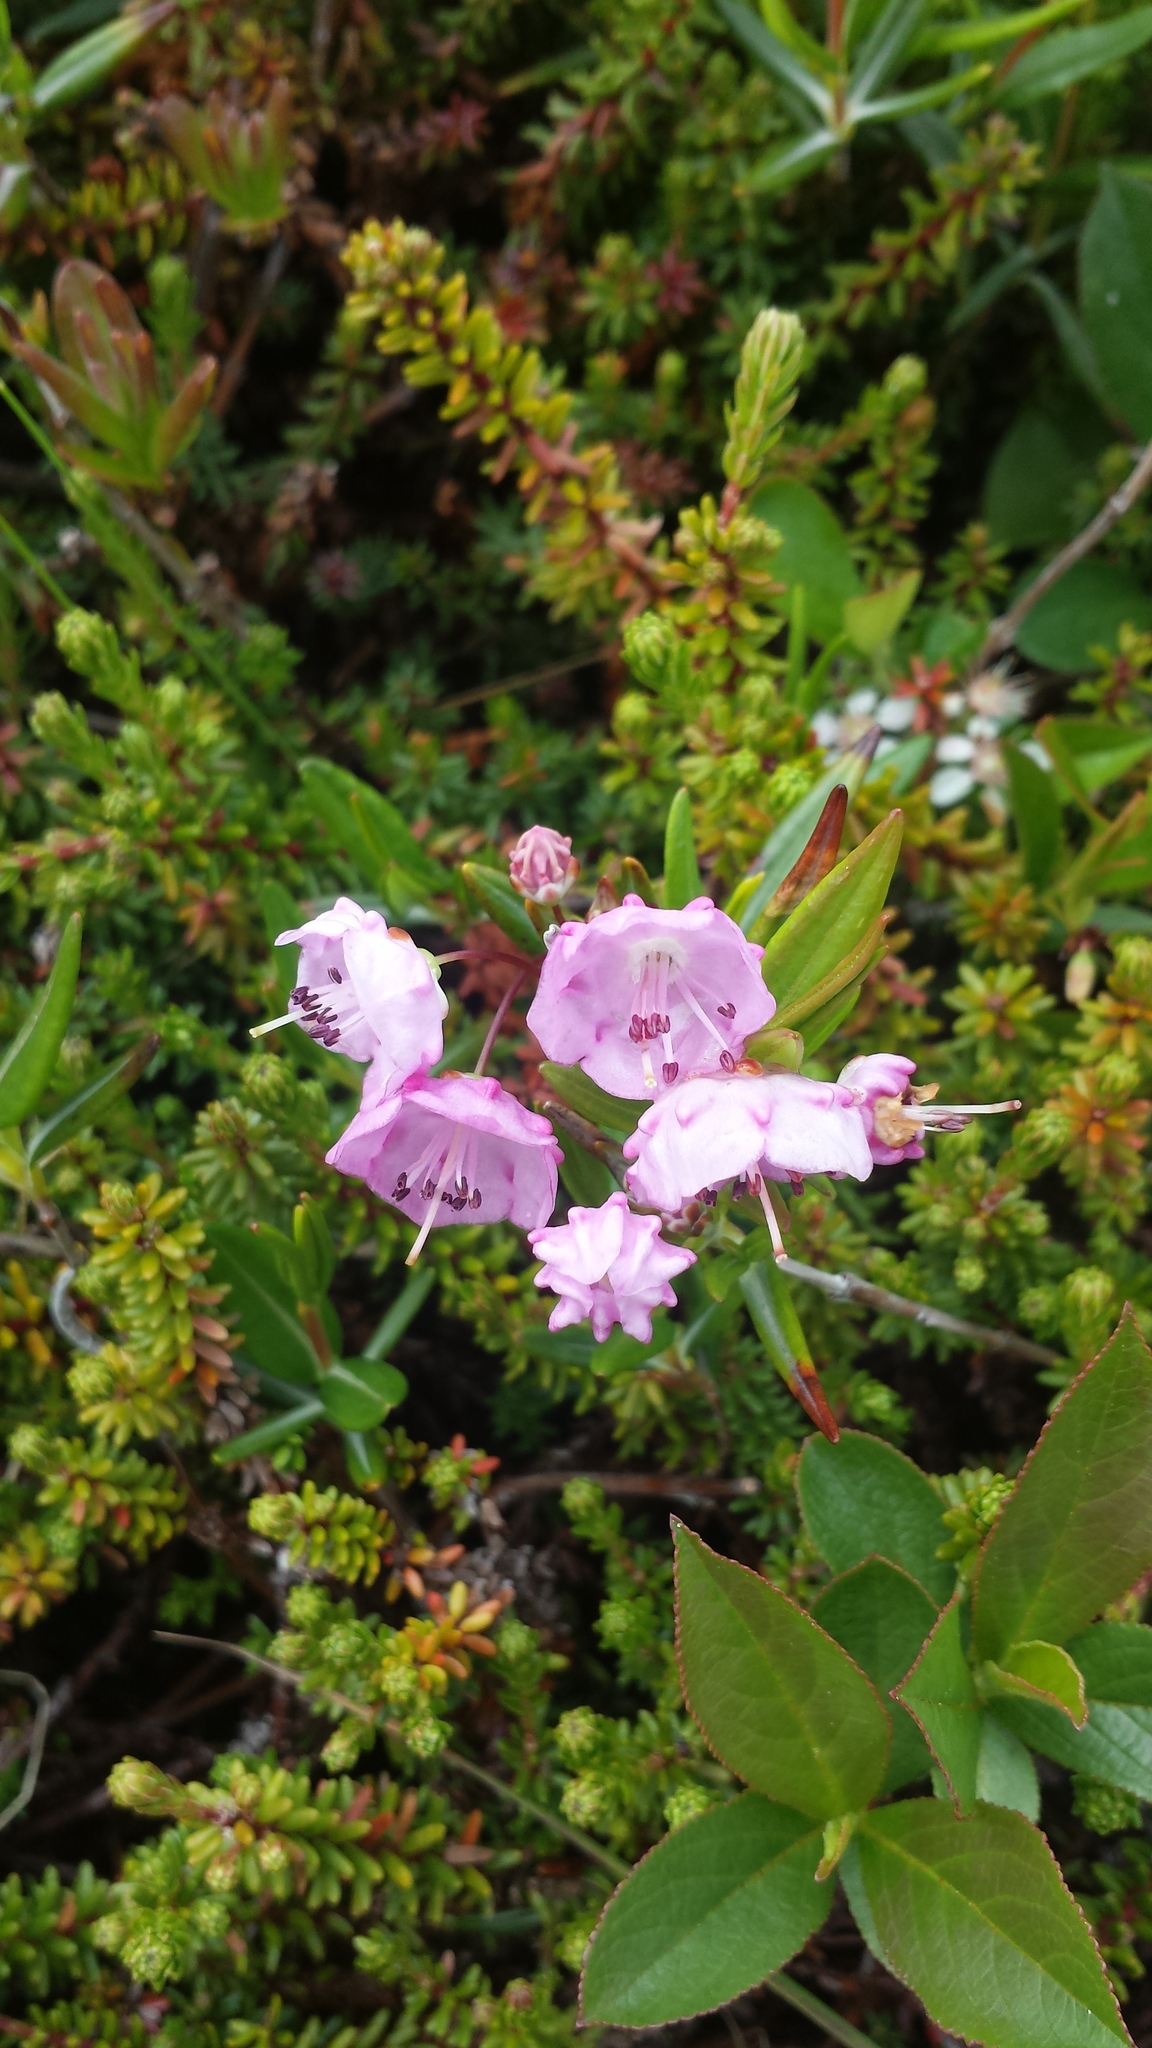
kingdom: Plantae
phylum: Tracheophyta
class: Magnoliopsida
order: Ericales
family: Ericaceae
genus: Kalmia
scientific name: Kalmia polifolia
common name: Bog-laurel
